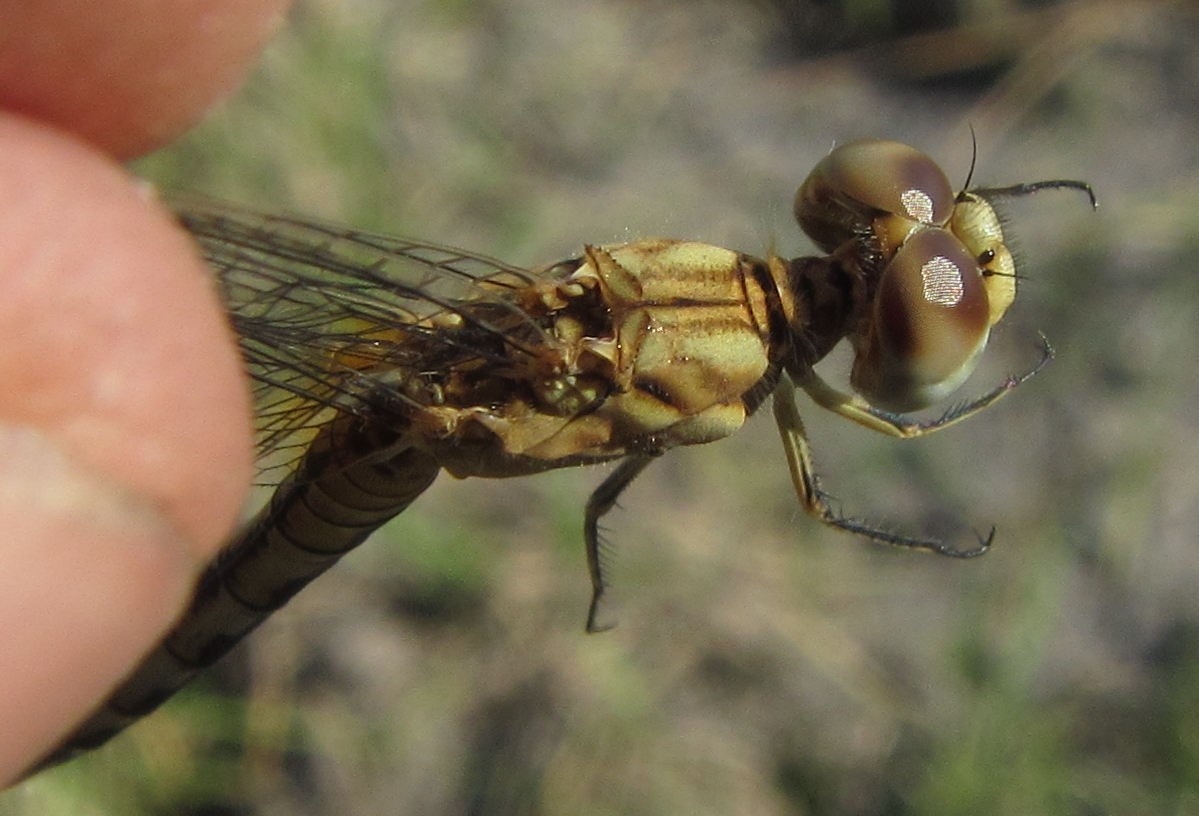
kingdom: Animalia
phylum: Arthropoda
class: Insecta
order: Odonata
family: Libellulidae
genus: Diplacodes
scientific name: Diplacodes lefebvrii
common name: Black percher
